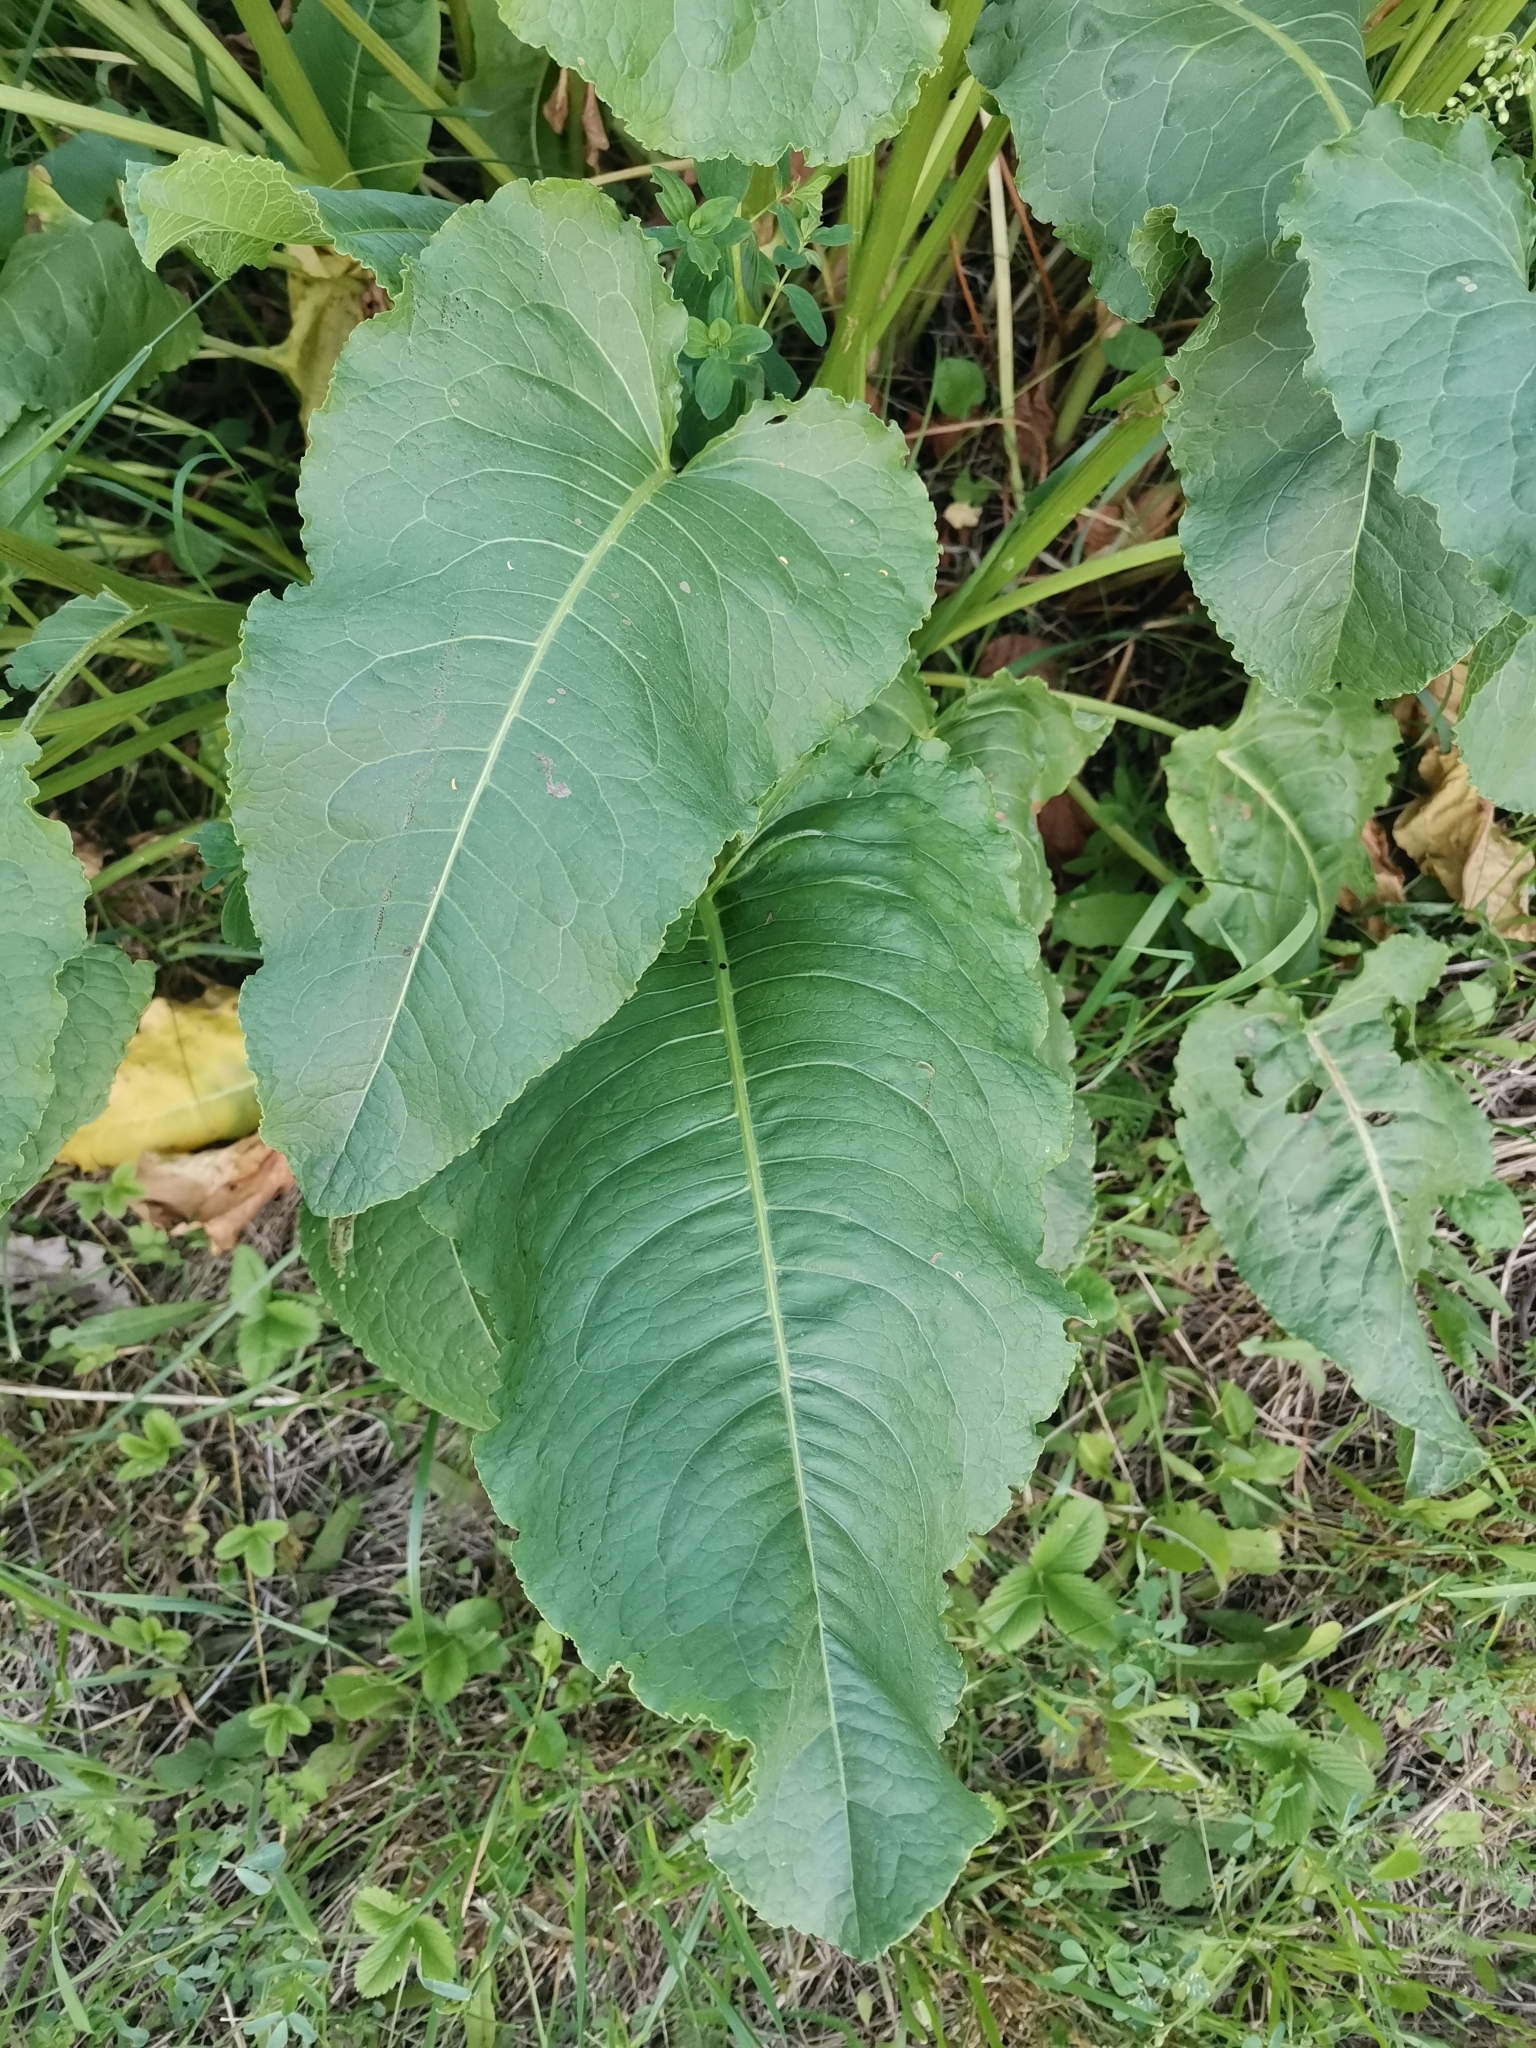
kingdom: Plantae
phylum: Tracheophyta
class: Magnoliopsida
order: Caryophyllales
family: Polygonaceae
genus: Rumex
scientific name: Rumex confertus
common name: Russian dock
